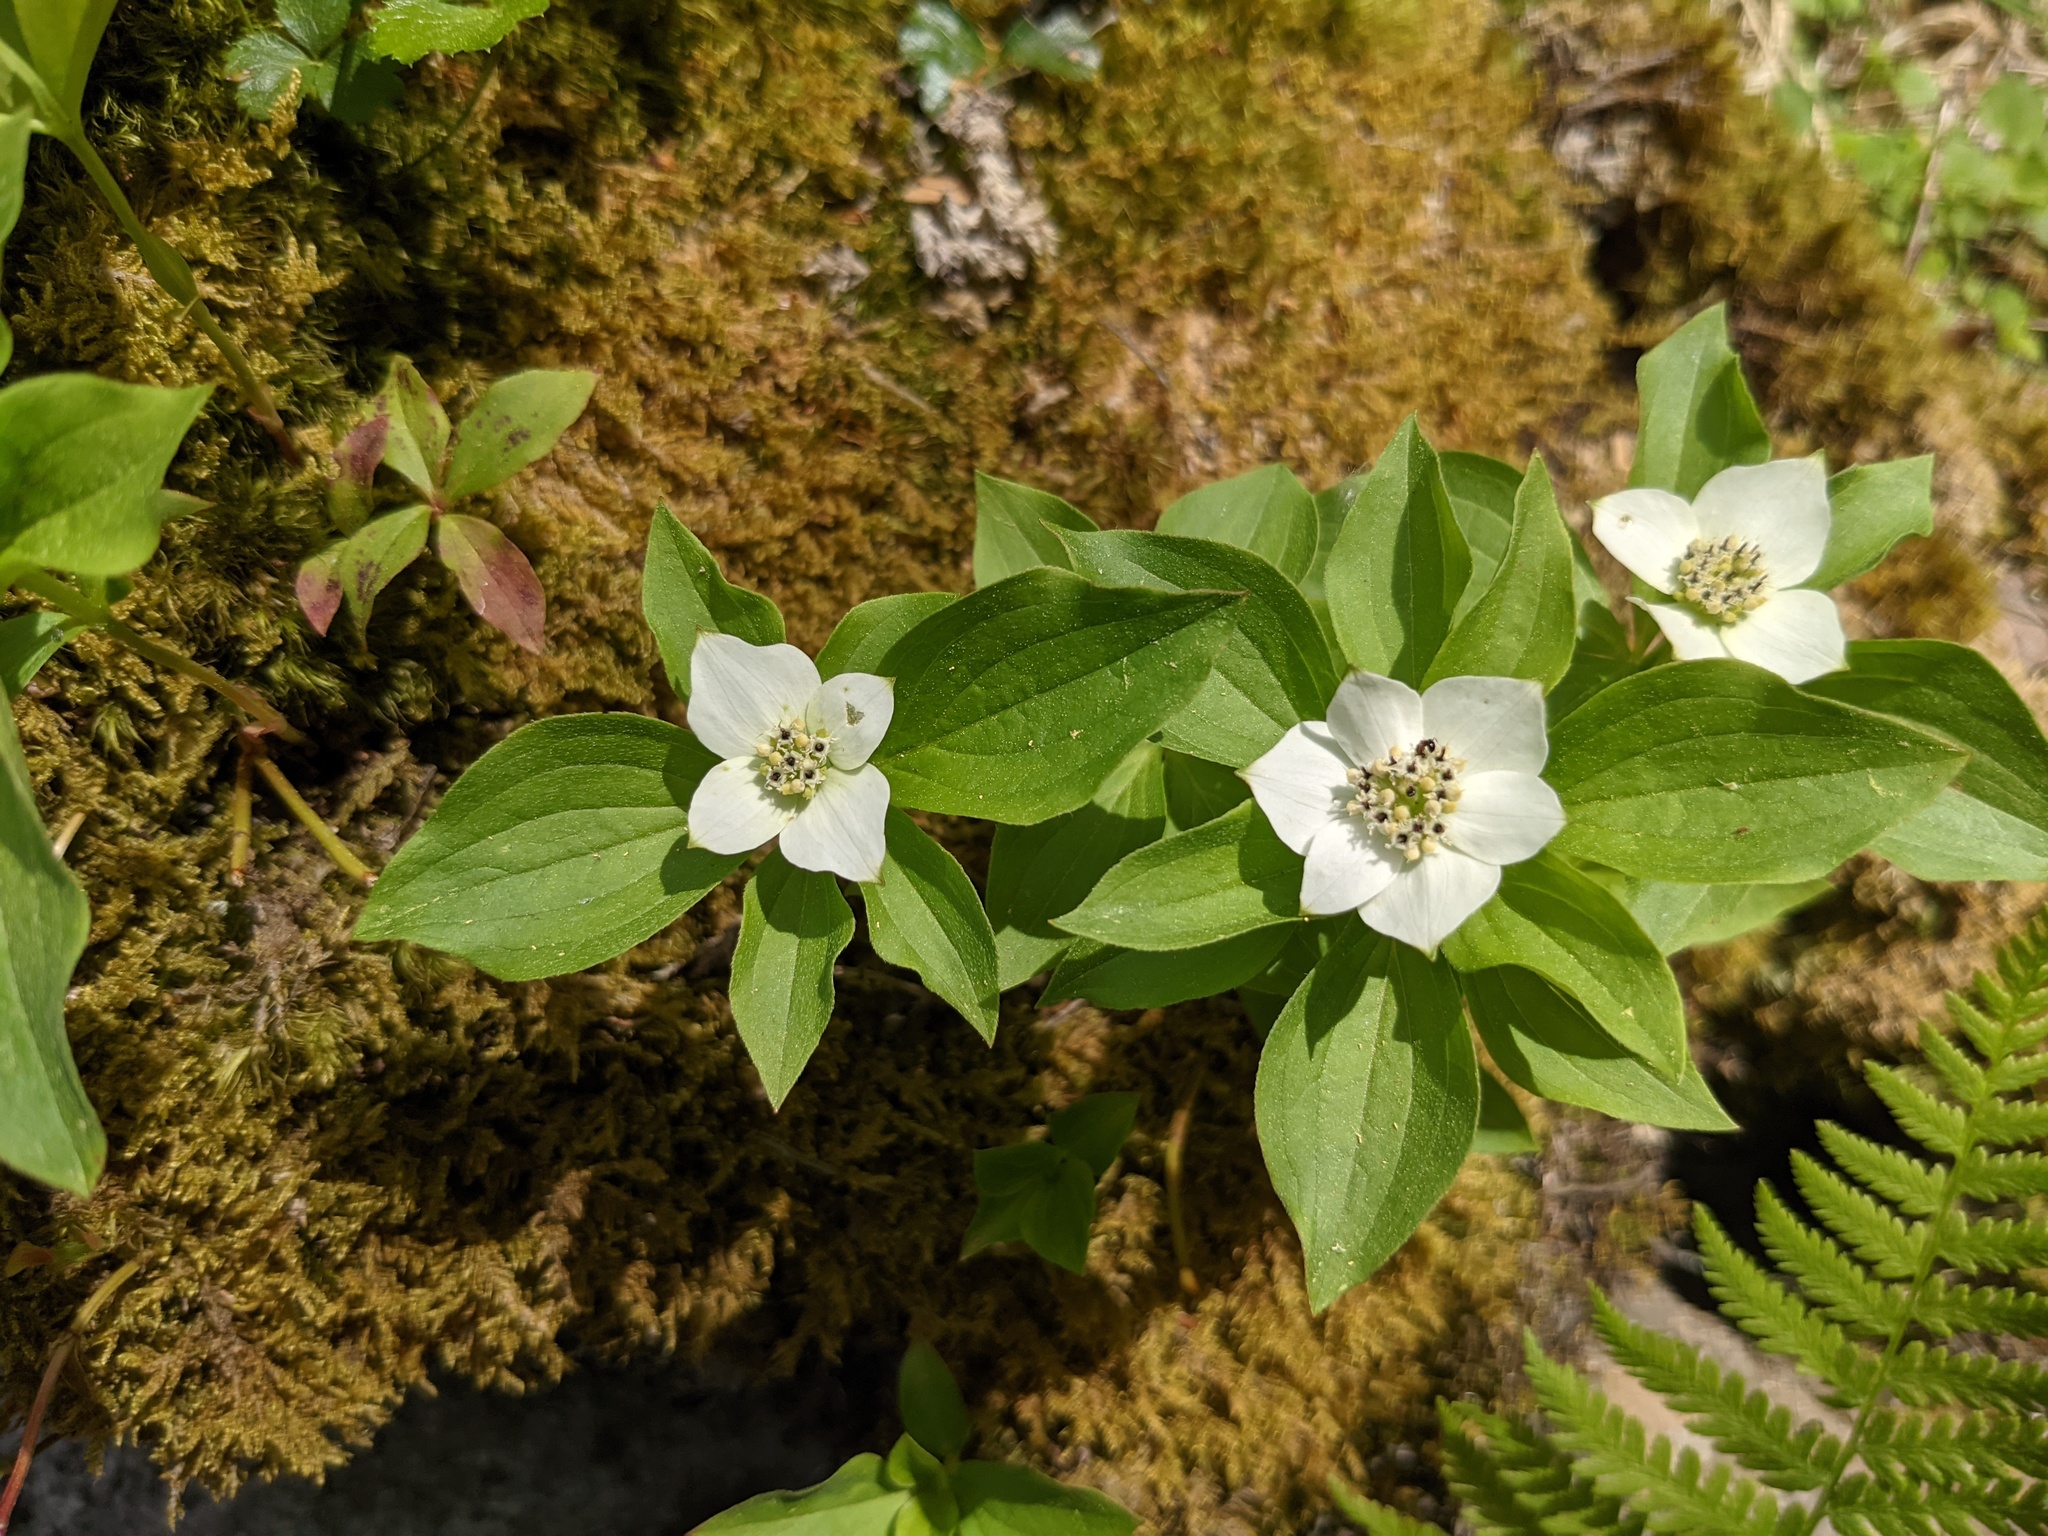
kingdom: Plantae
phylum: Tracheophyta
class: Magnoliopsida
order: Cornales
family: Cornaceae
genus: Cornus
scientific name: Cornus canadensis
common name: Creeping dogwood
